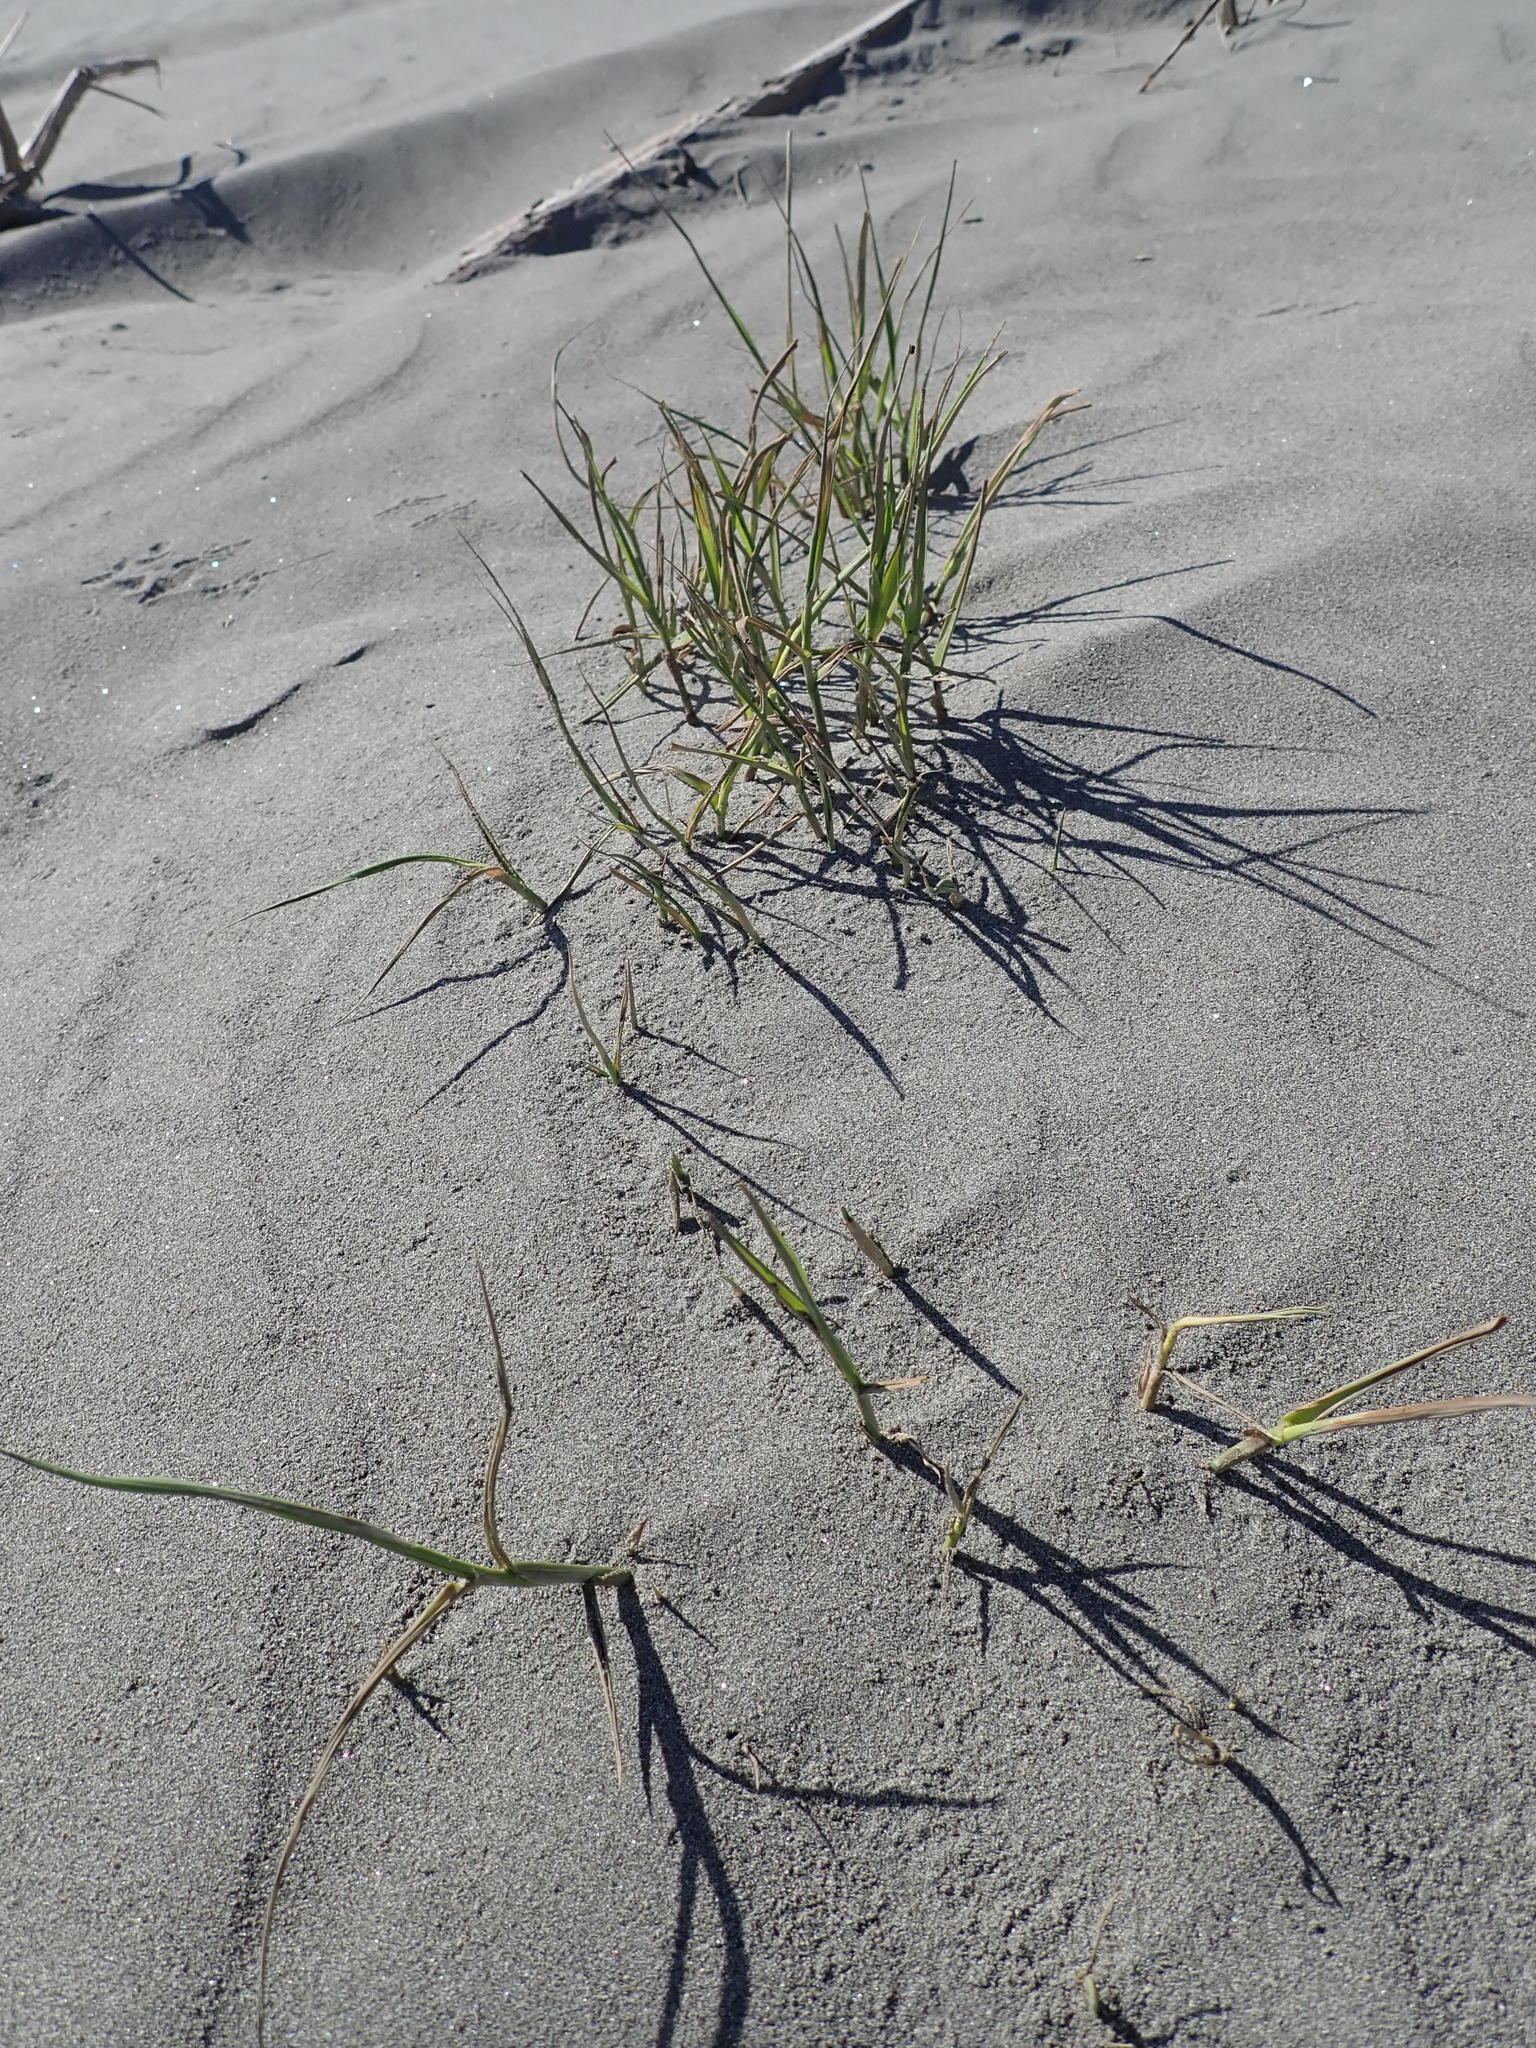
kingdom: Plantae
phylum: Tracheophyta
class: Liliopsida
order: Poales
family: Poaceae
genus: Phragmites
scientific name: Phragmites karka
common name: Tropical reed
